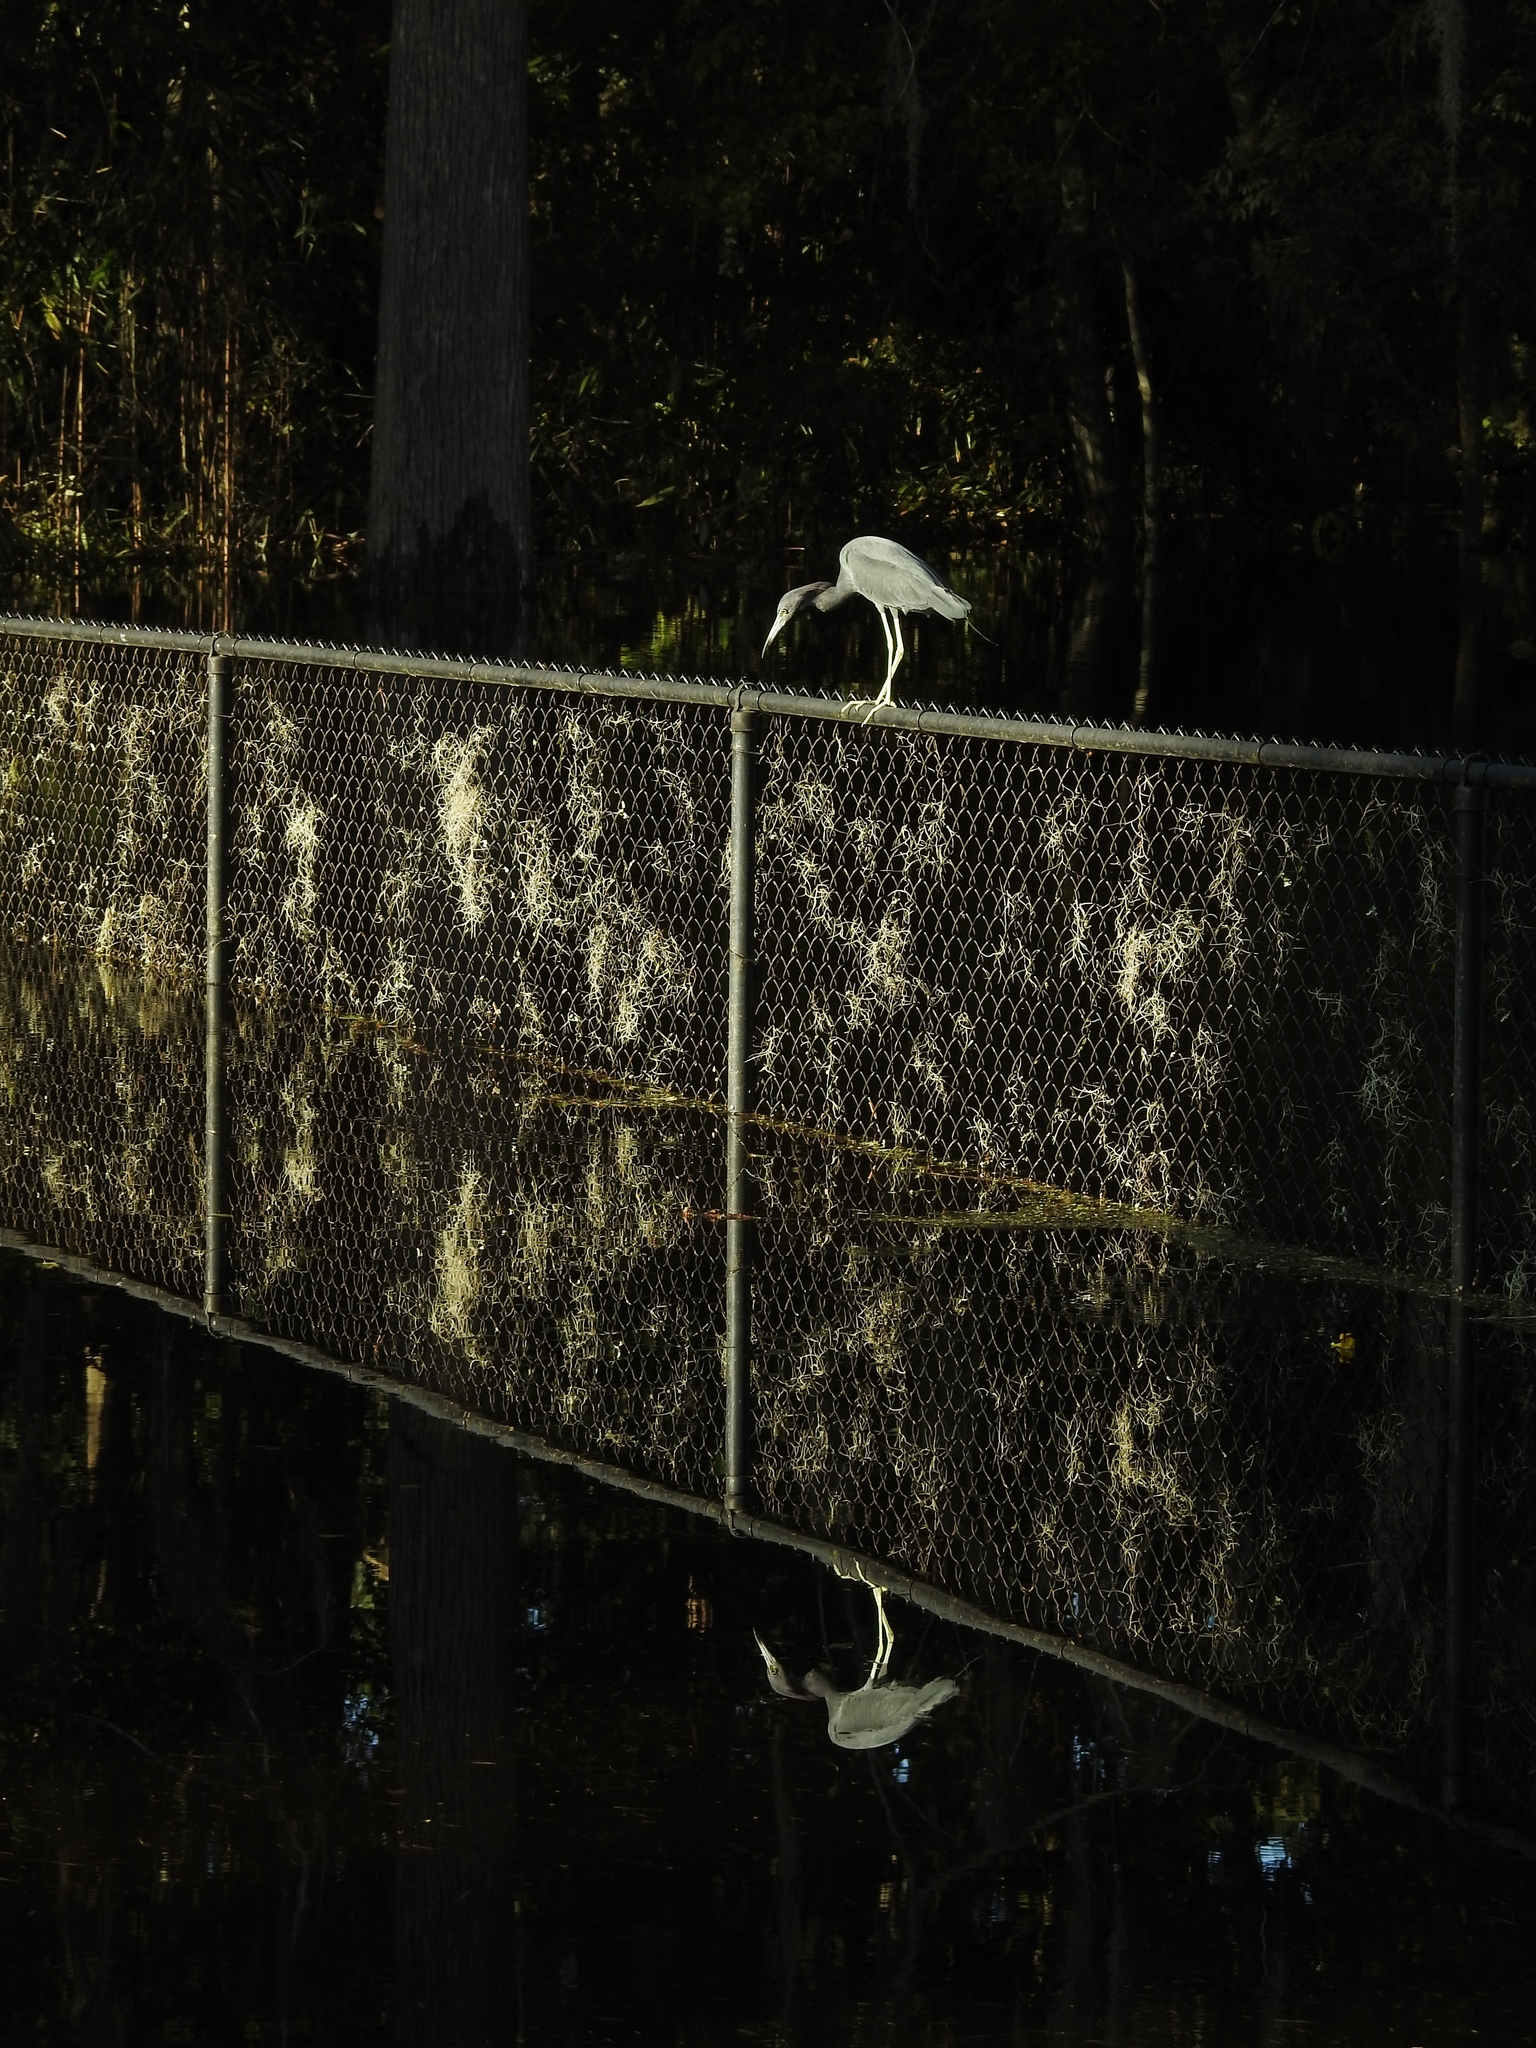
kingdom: Animalia
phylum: Chordata
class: Aves
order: Pelecaniformes
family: Ardeidae
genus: Egretta
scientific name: Egretta caerulea
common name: Little blue heron
